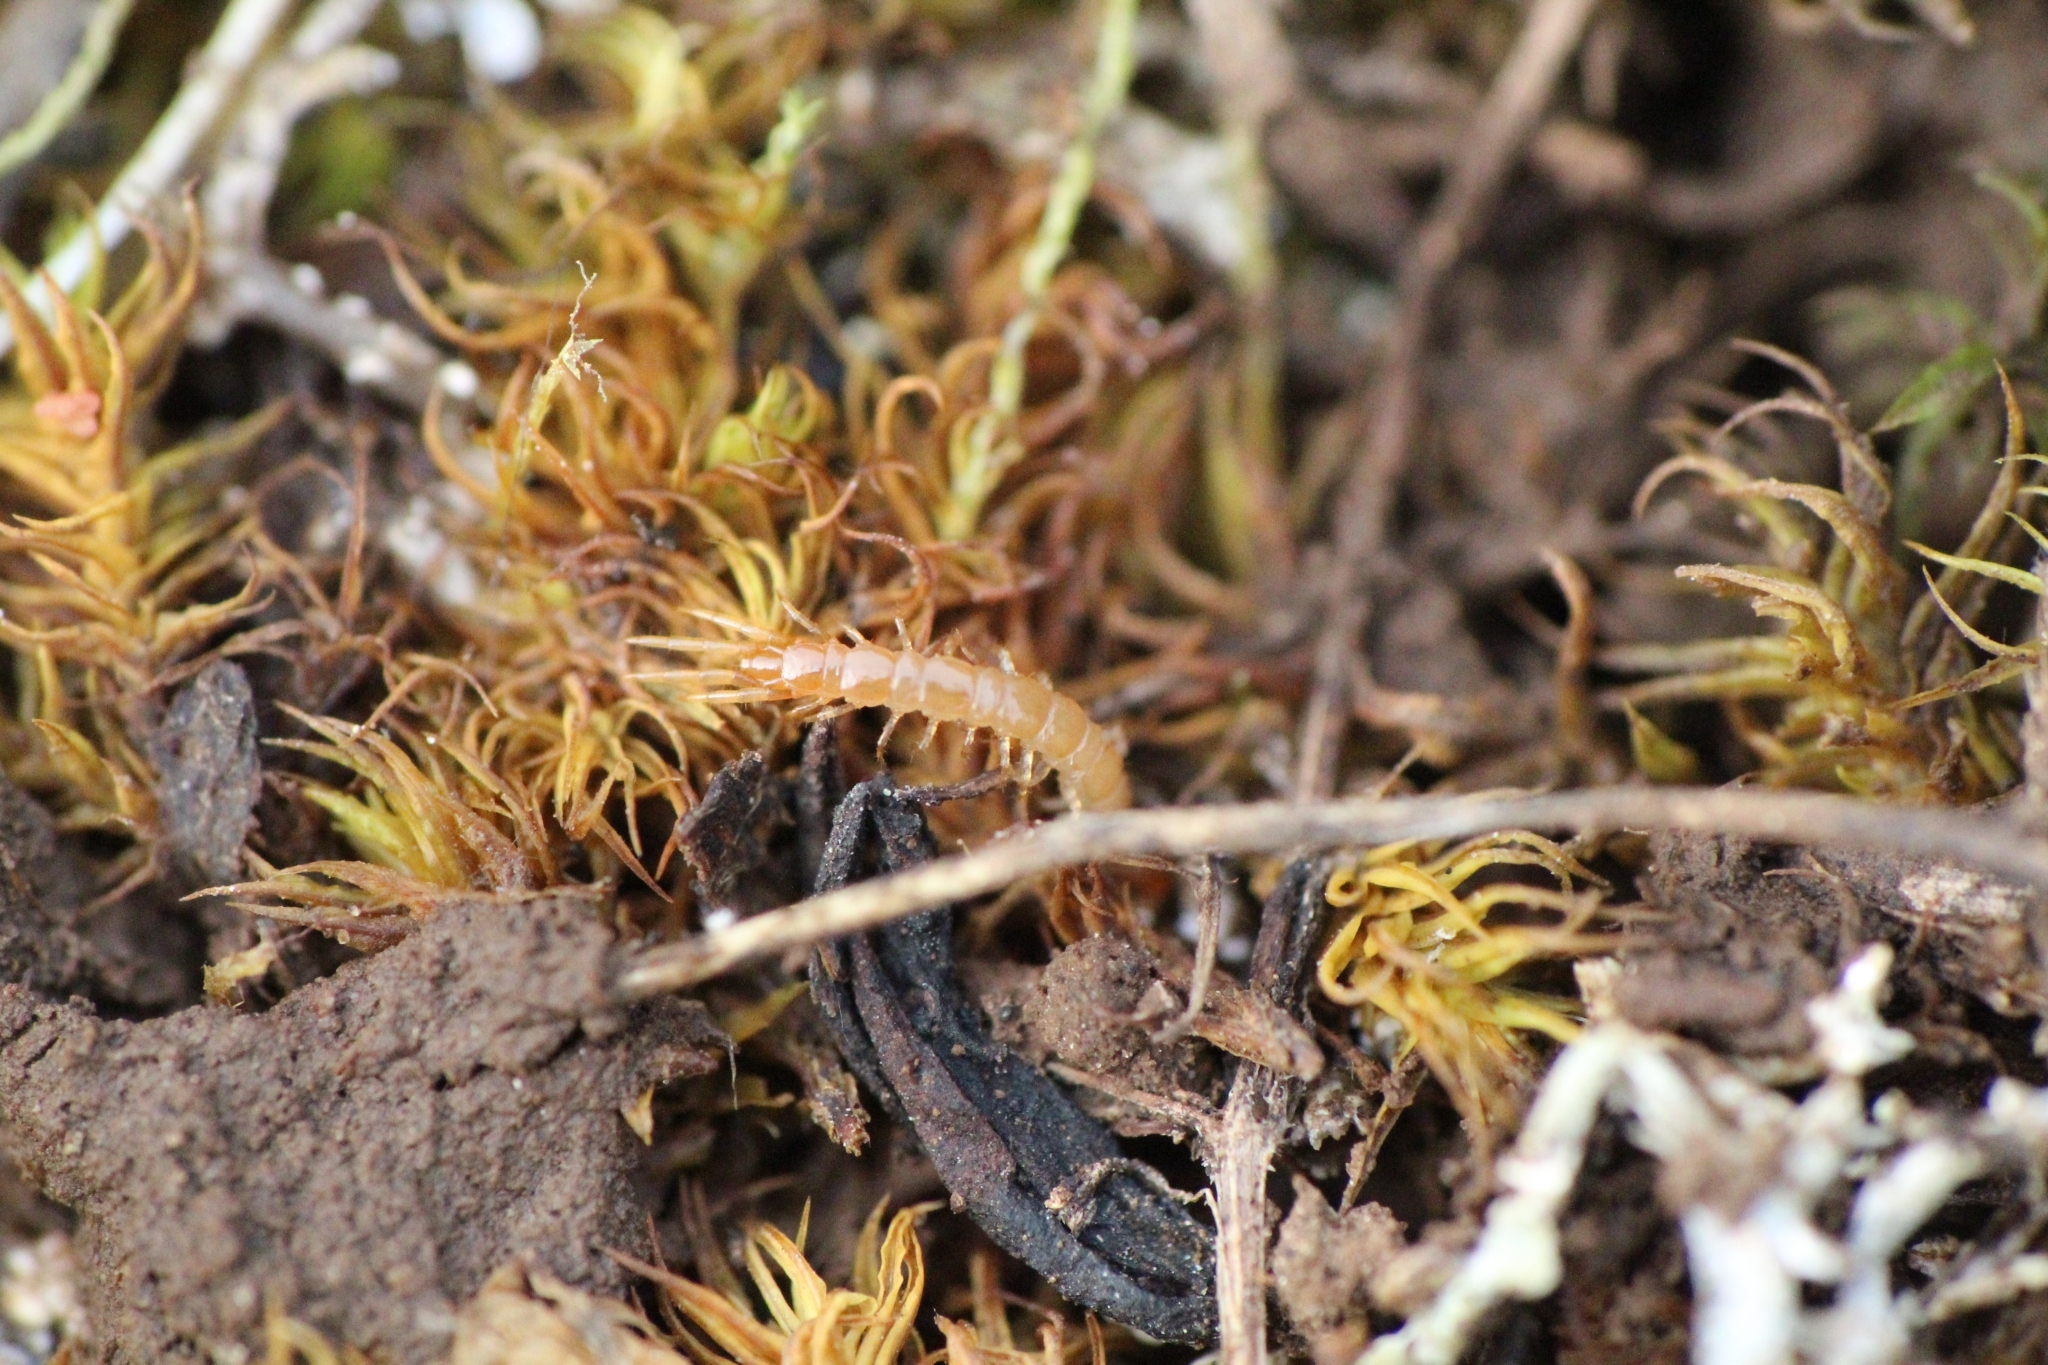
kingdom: Animalia
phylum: Arthropoda
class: Chilopoda
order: Lithobiomorpha
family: Lithobiidae
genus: Lithobius
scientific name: Lithobius microps
